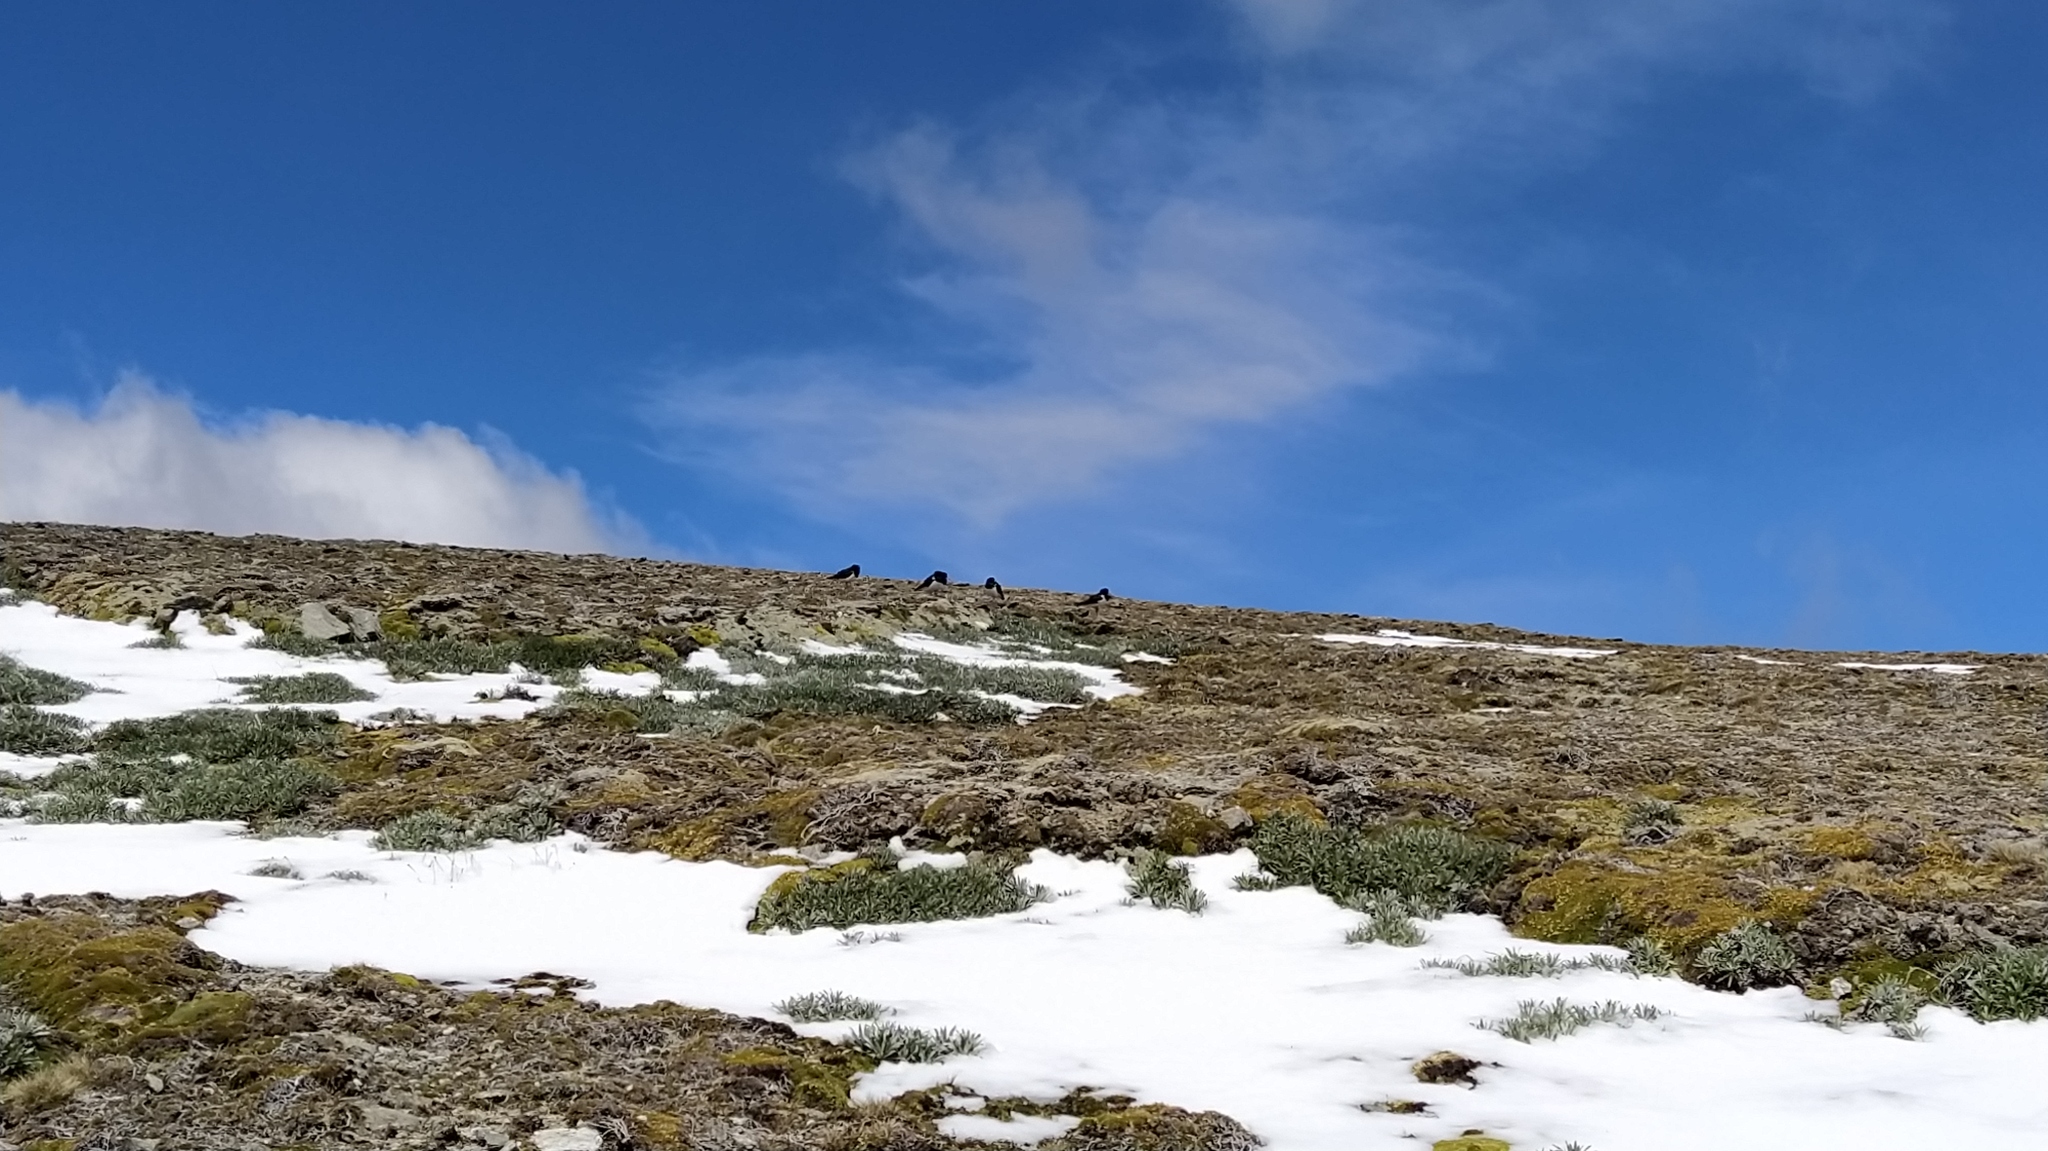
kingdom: Animalia
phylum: Chordata
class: Aves
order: Charadriiformes
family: Haematopodidae
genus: Haematopus
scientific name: Haematopus finschi
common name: South island oystercatcher
